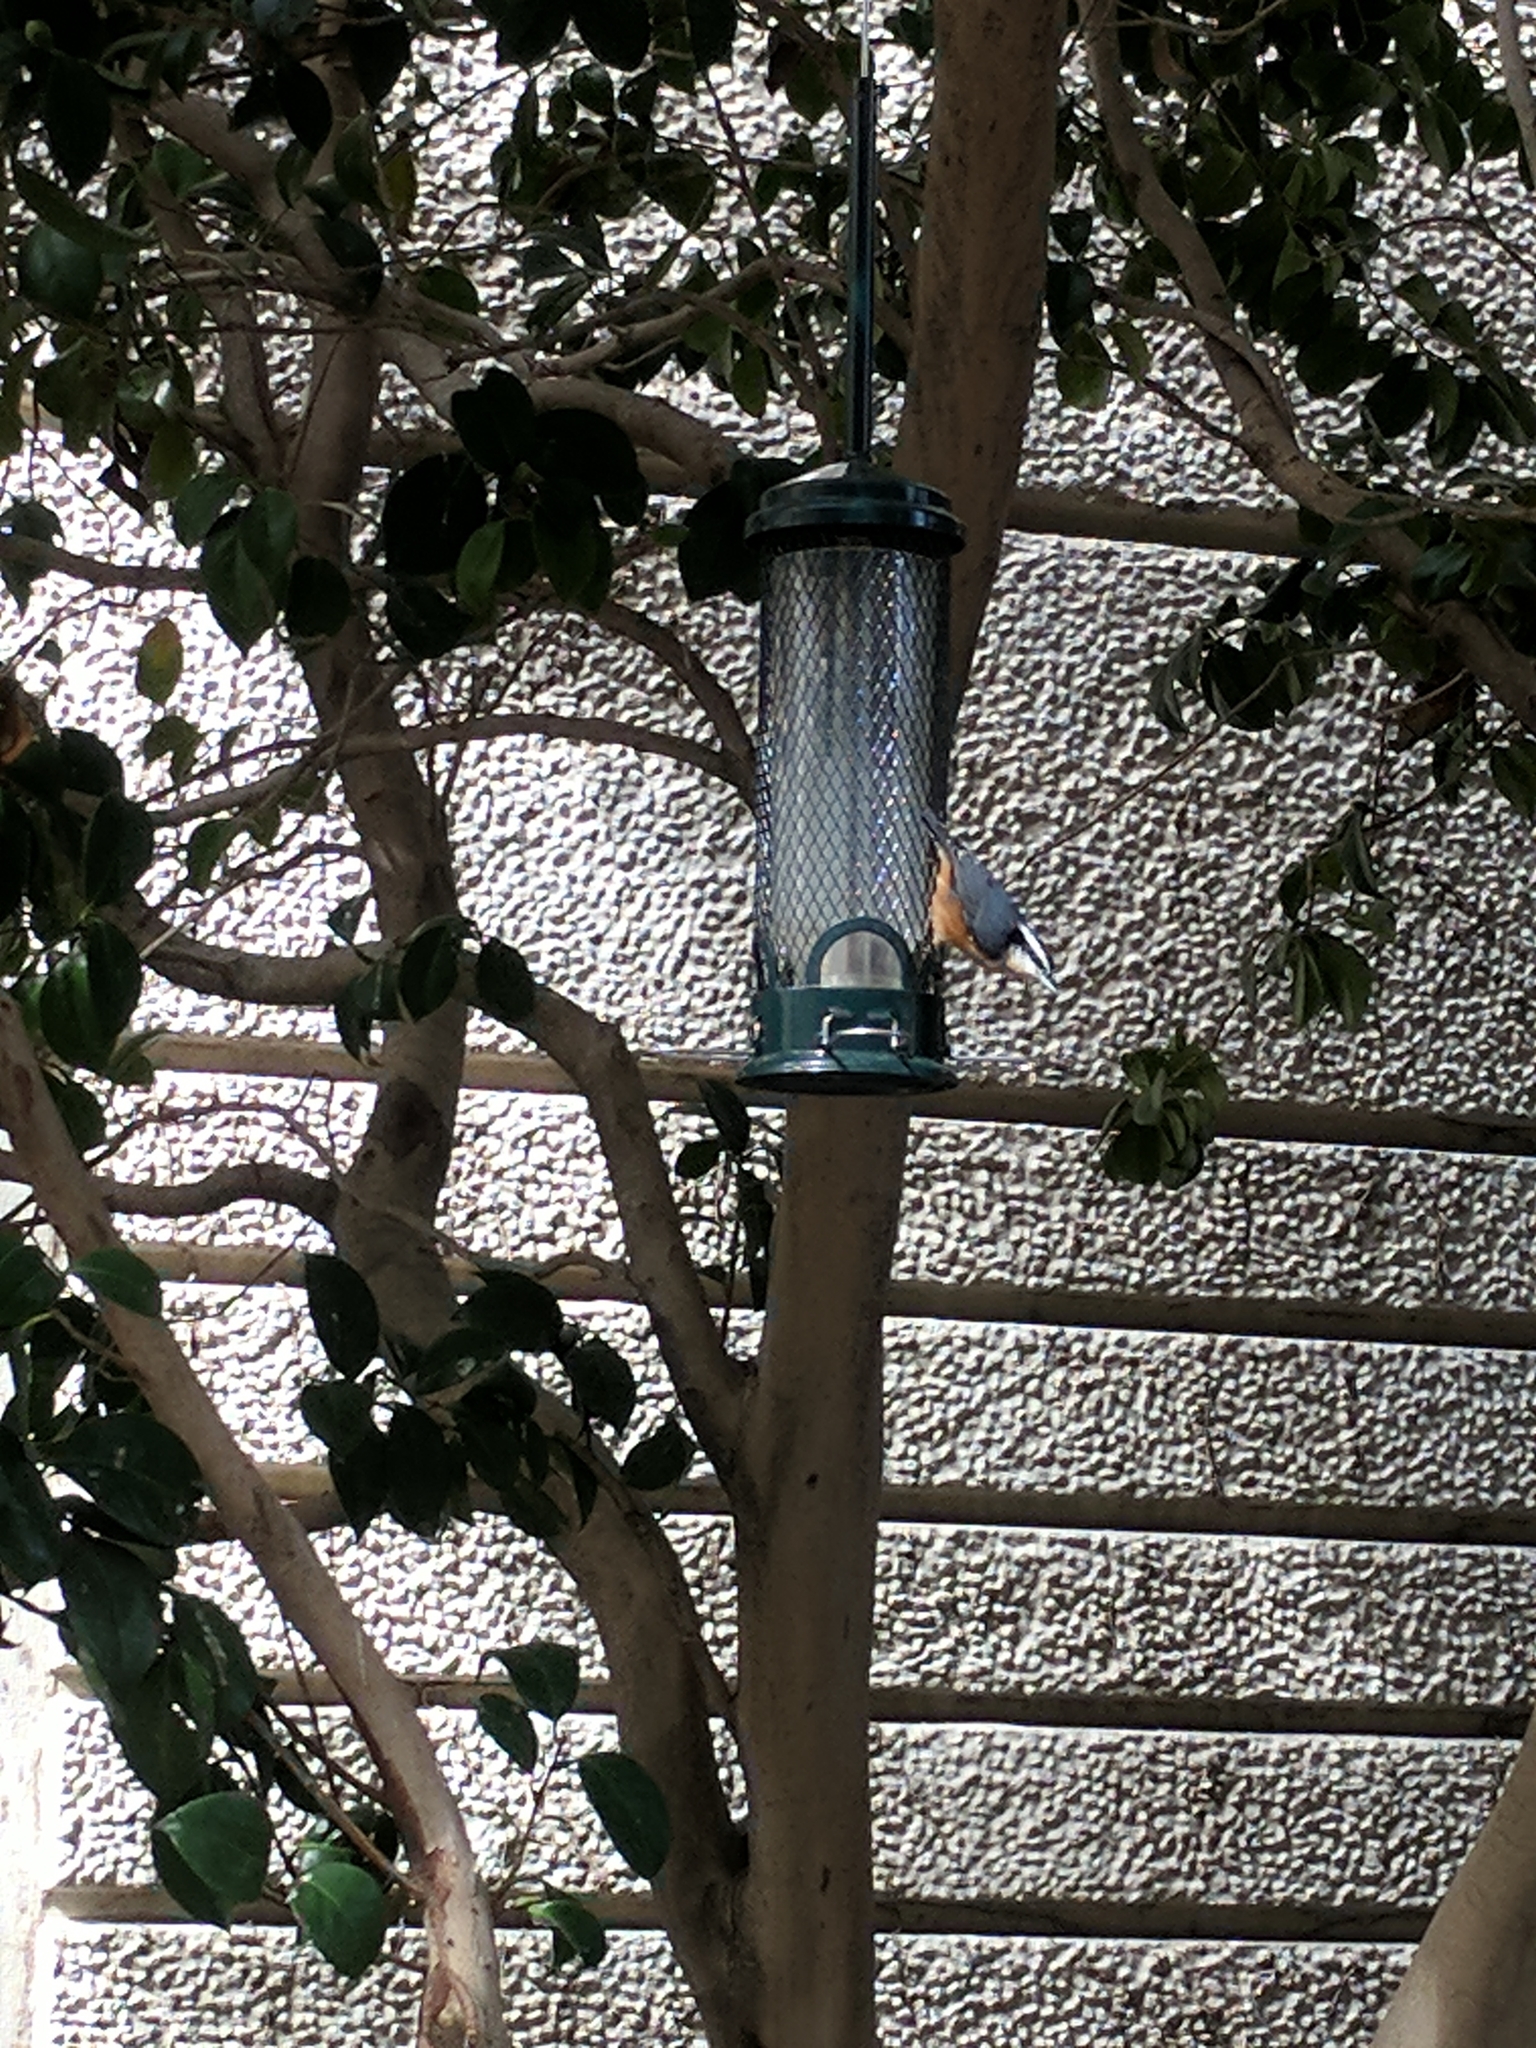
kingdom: Animalia
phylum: Chordata
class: Aves
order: Passeriformes
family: Sittidae
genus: Sitta
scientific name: Sitta canadensis
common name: Red-breasted nuthatch
